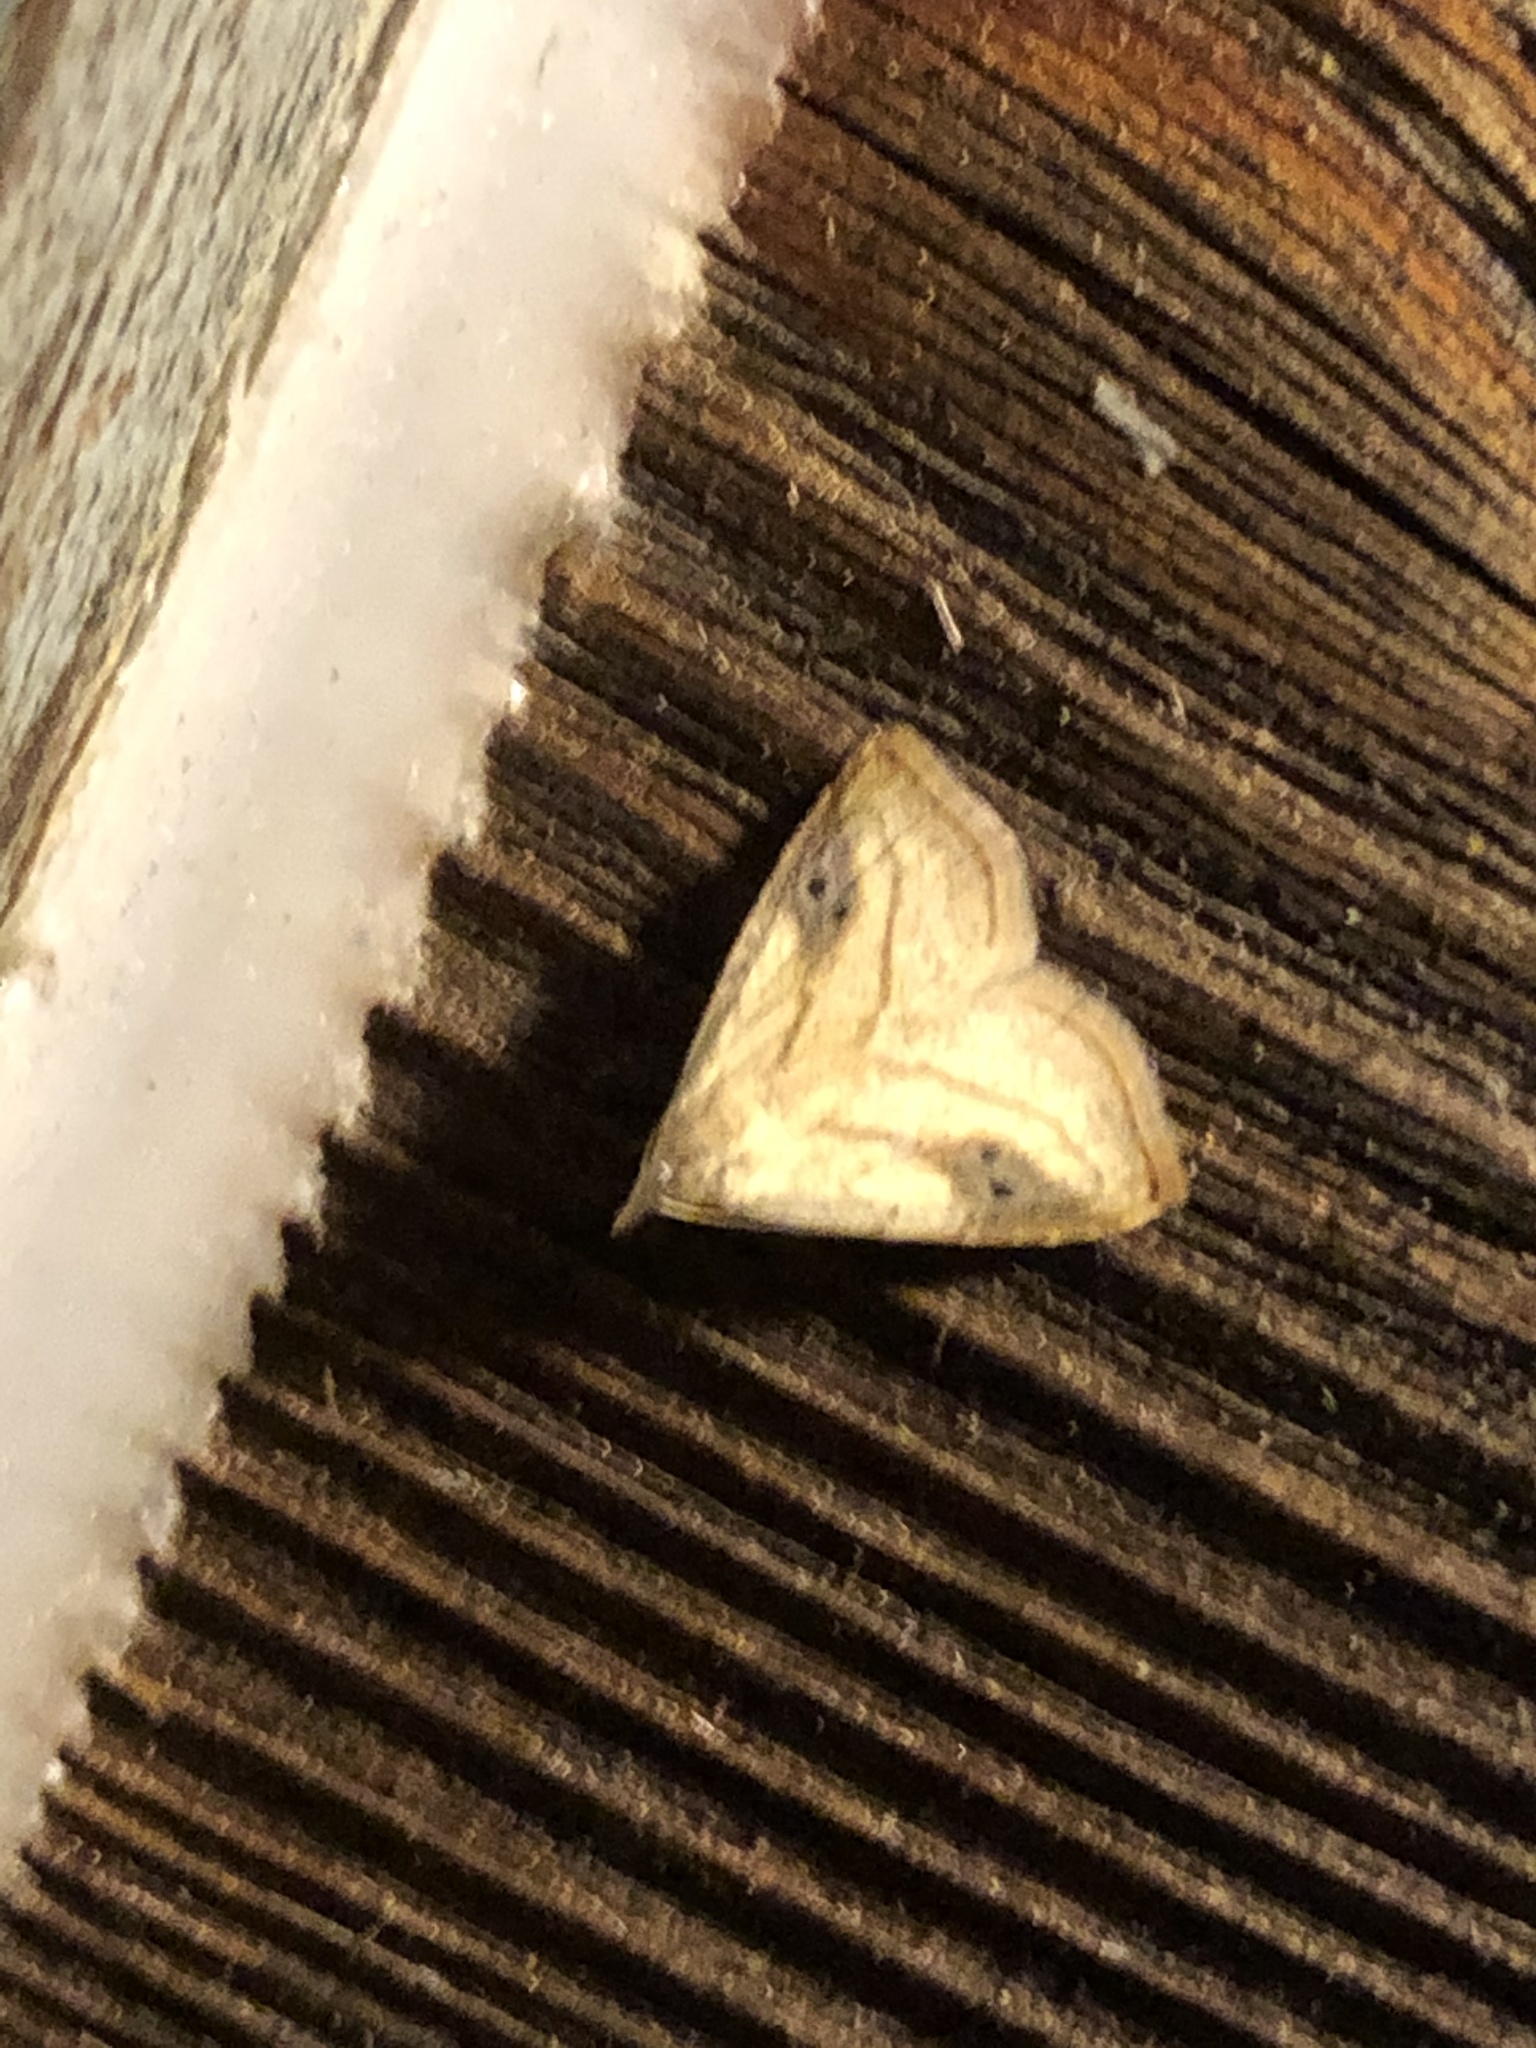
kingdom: Animalia
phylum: Arthropoda
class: Insecta
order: Lepidoptera
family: Erebidae
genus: Rivula
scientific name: Rivula propinqualis
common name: Spotted grass moth
